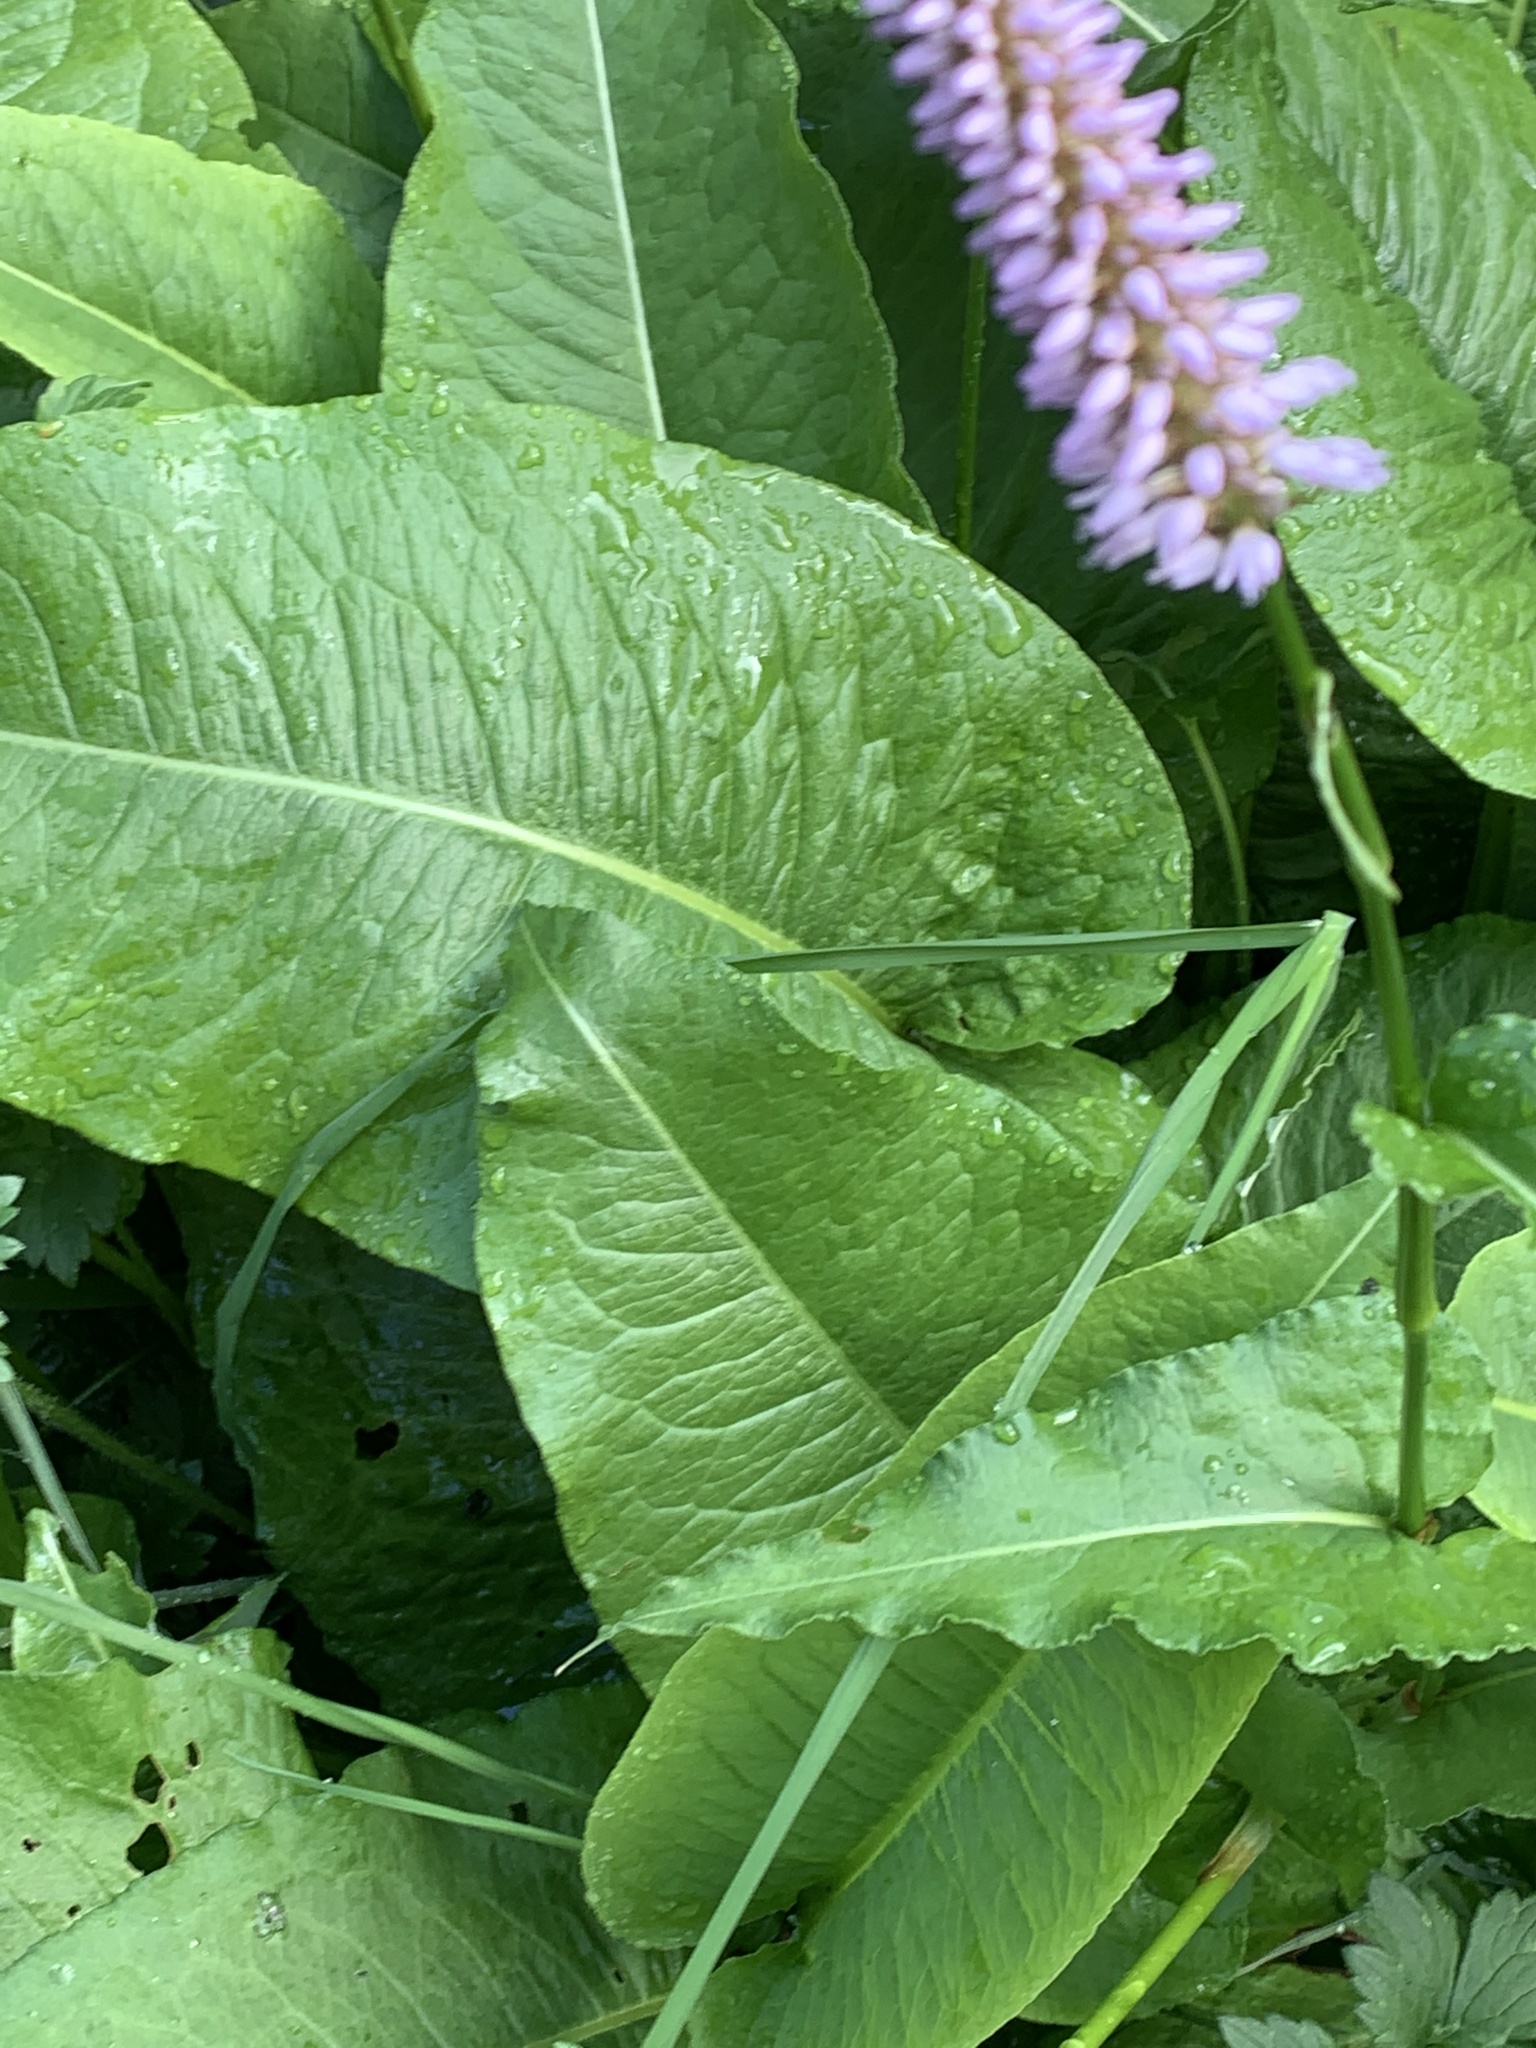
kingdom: Plantae
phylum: Tracheophyta
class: Magnoliopsida
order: Caryophyllales
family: Polygonaceae
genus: Bistorta
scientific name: Bistorta officinalis
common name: Common bistort
